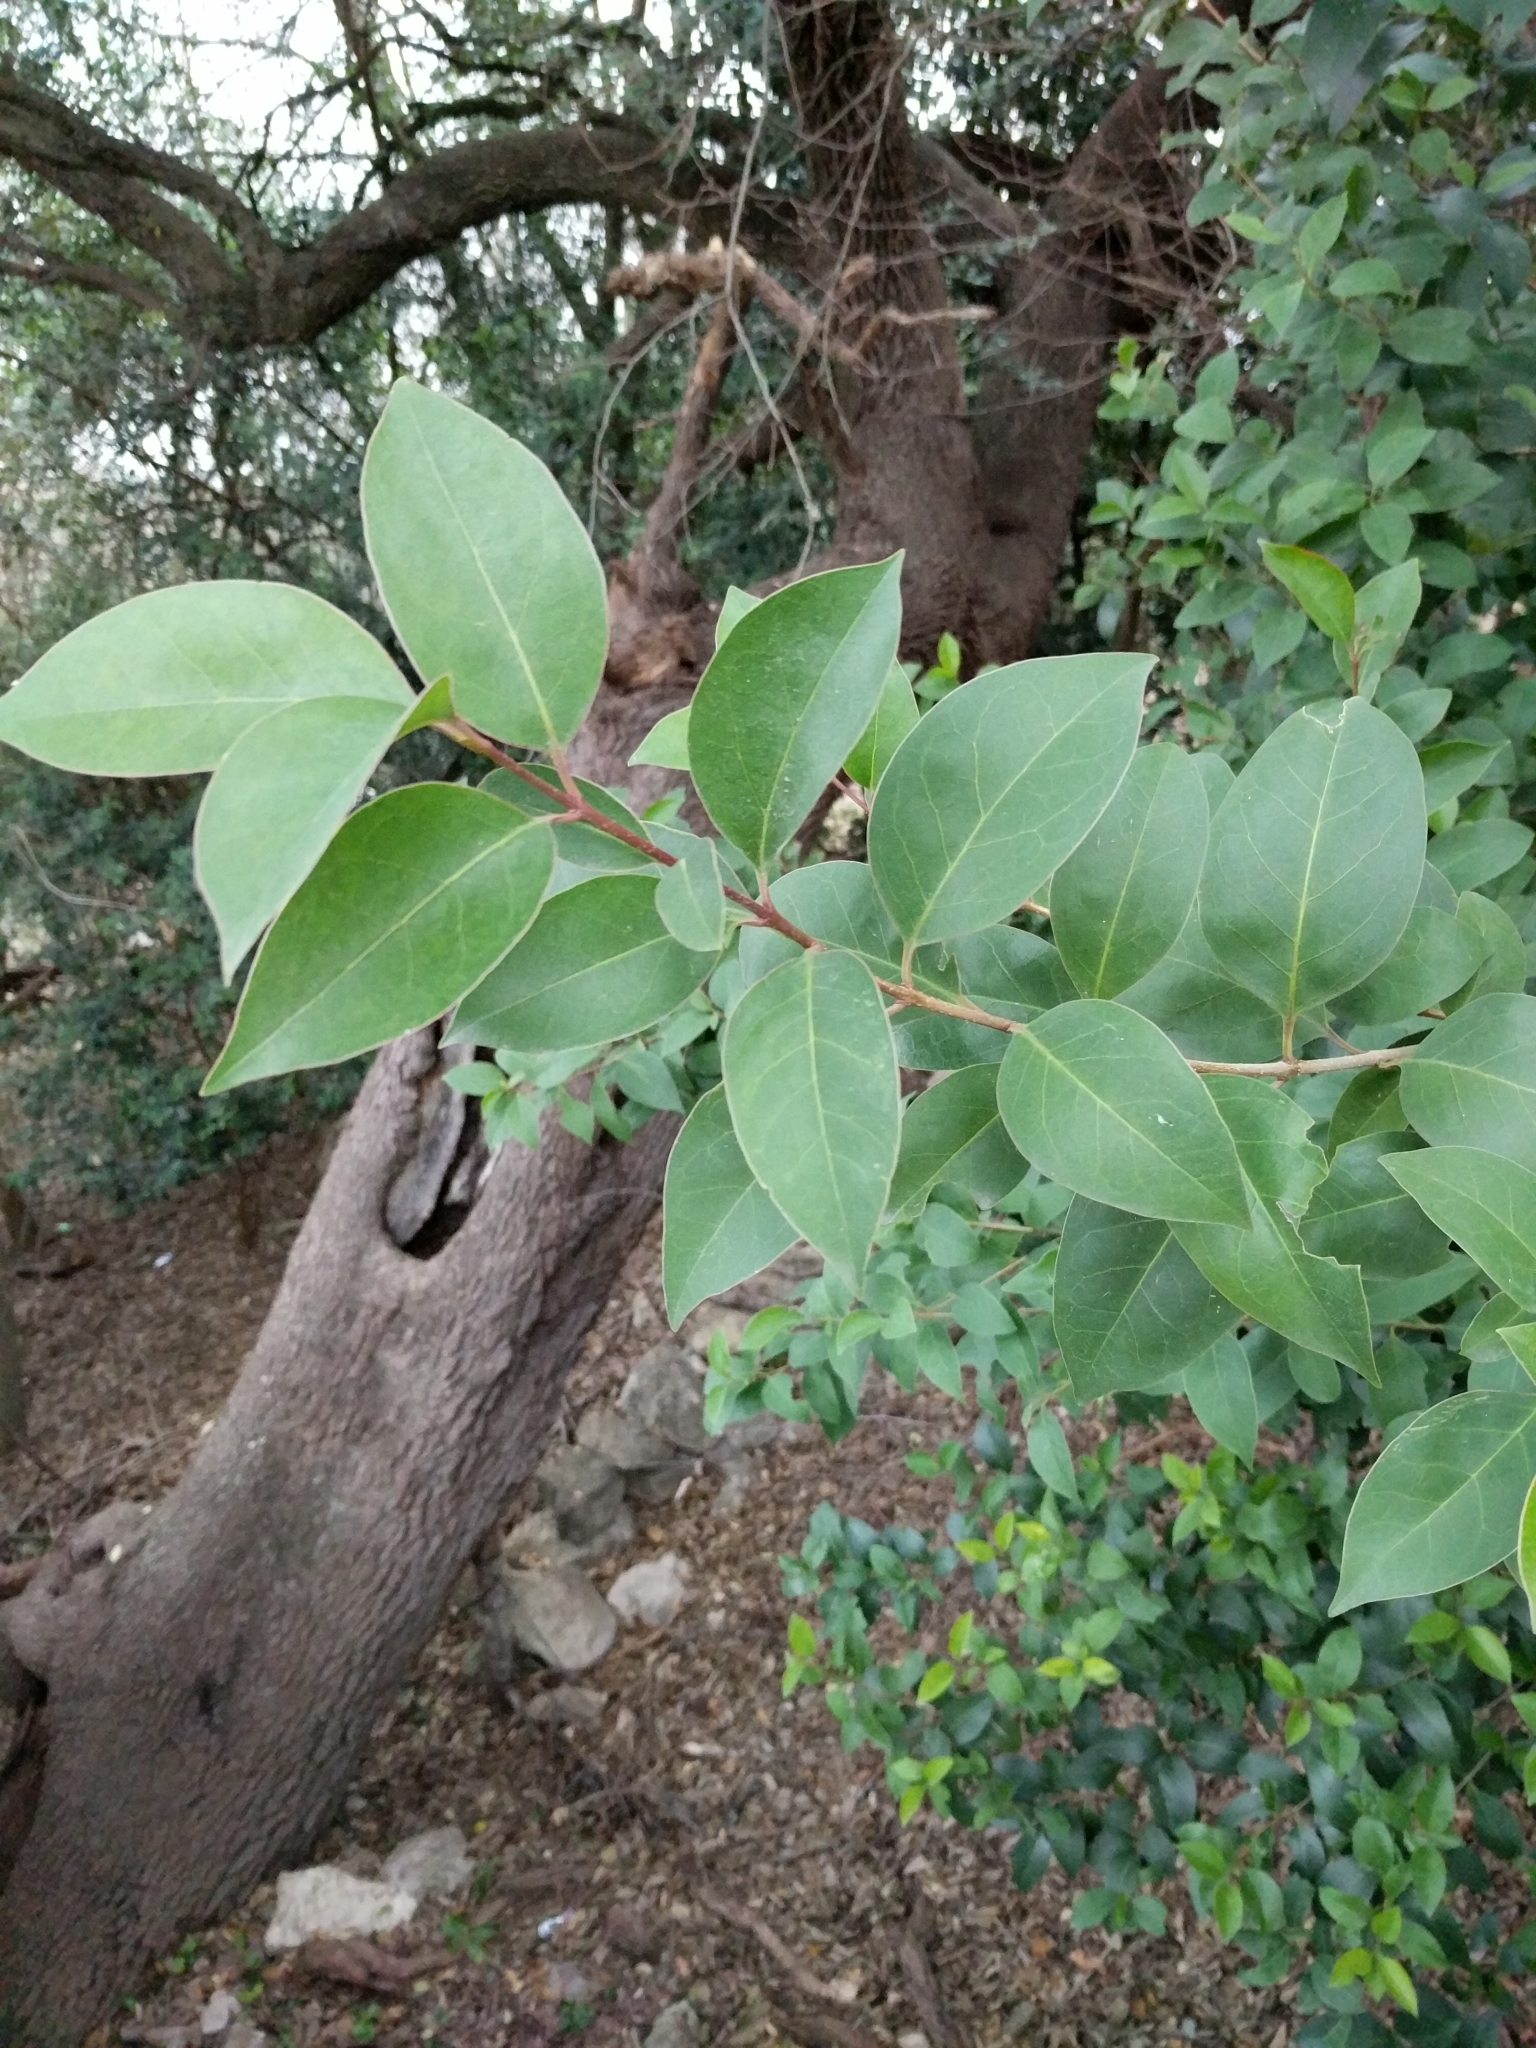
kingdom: Plantae
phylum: Tracheophyta
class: Magnoliopsida
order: Lamiales
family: Oleaceae
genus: Ligustrum
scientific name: Ligustrum lucidum
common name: Glossy privet
